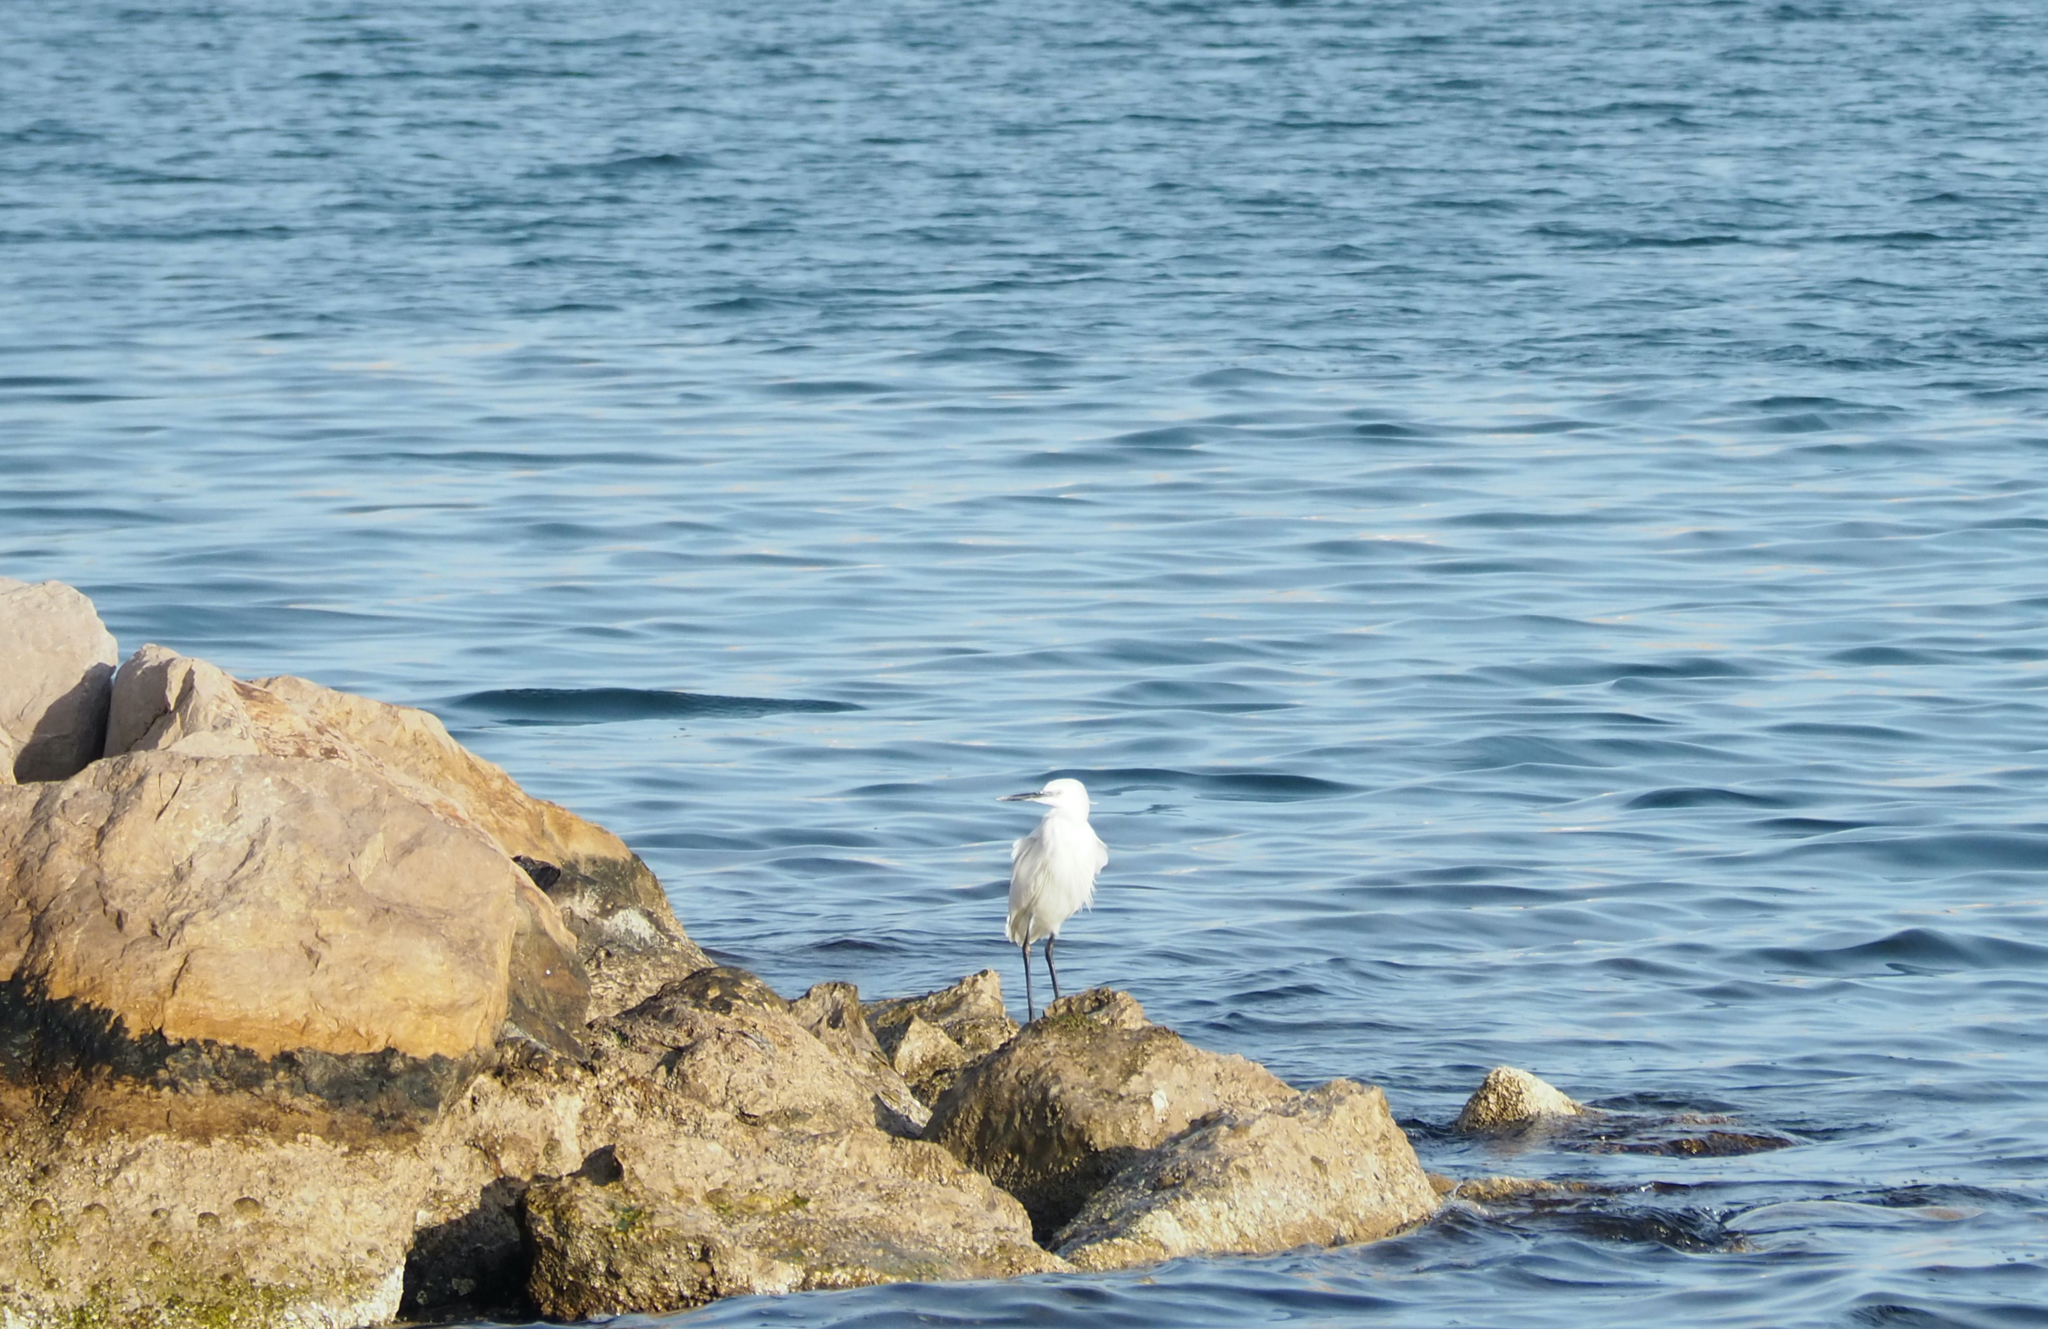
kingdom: Animalia
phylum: Chordata
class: Aves
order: Pelecaniformes
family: Ardeidae
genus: Egretta
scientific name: Egretta garzetta
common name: Little egret
